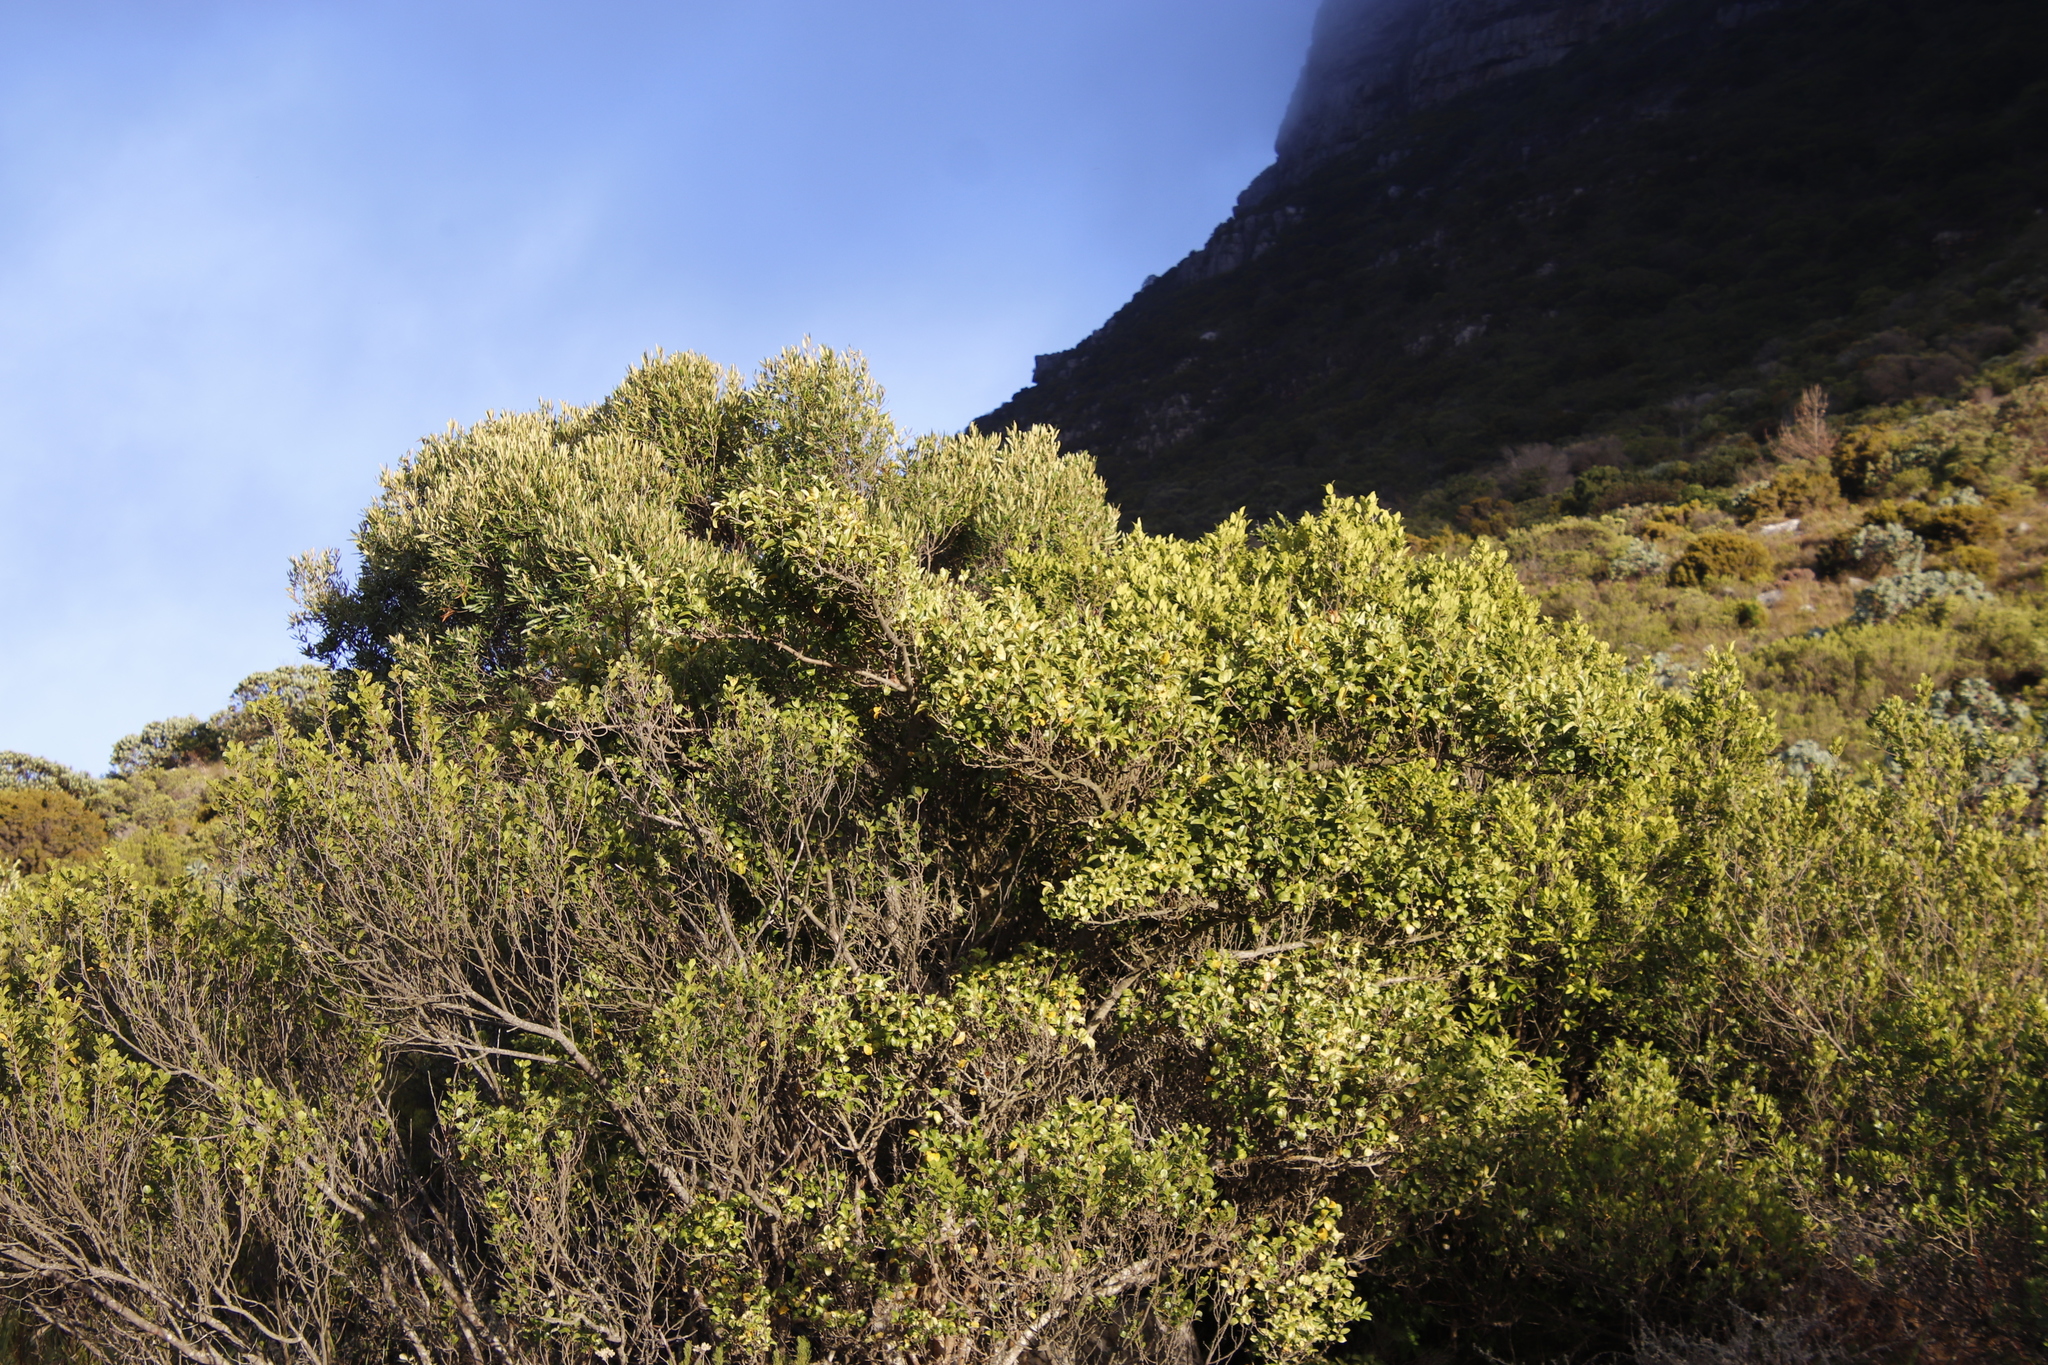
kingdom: Plantae
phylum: Tracheophyta
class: Magnoliopsida
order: Lamiales
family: Oleaceae
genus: Olea
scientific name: Olea europaea
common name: Olive
